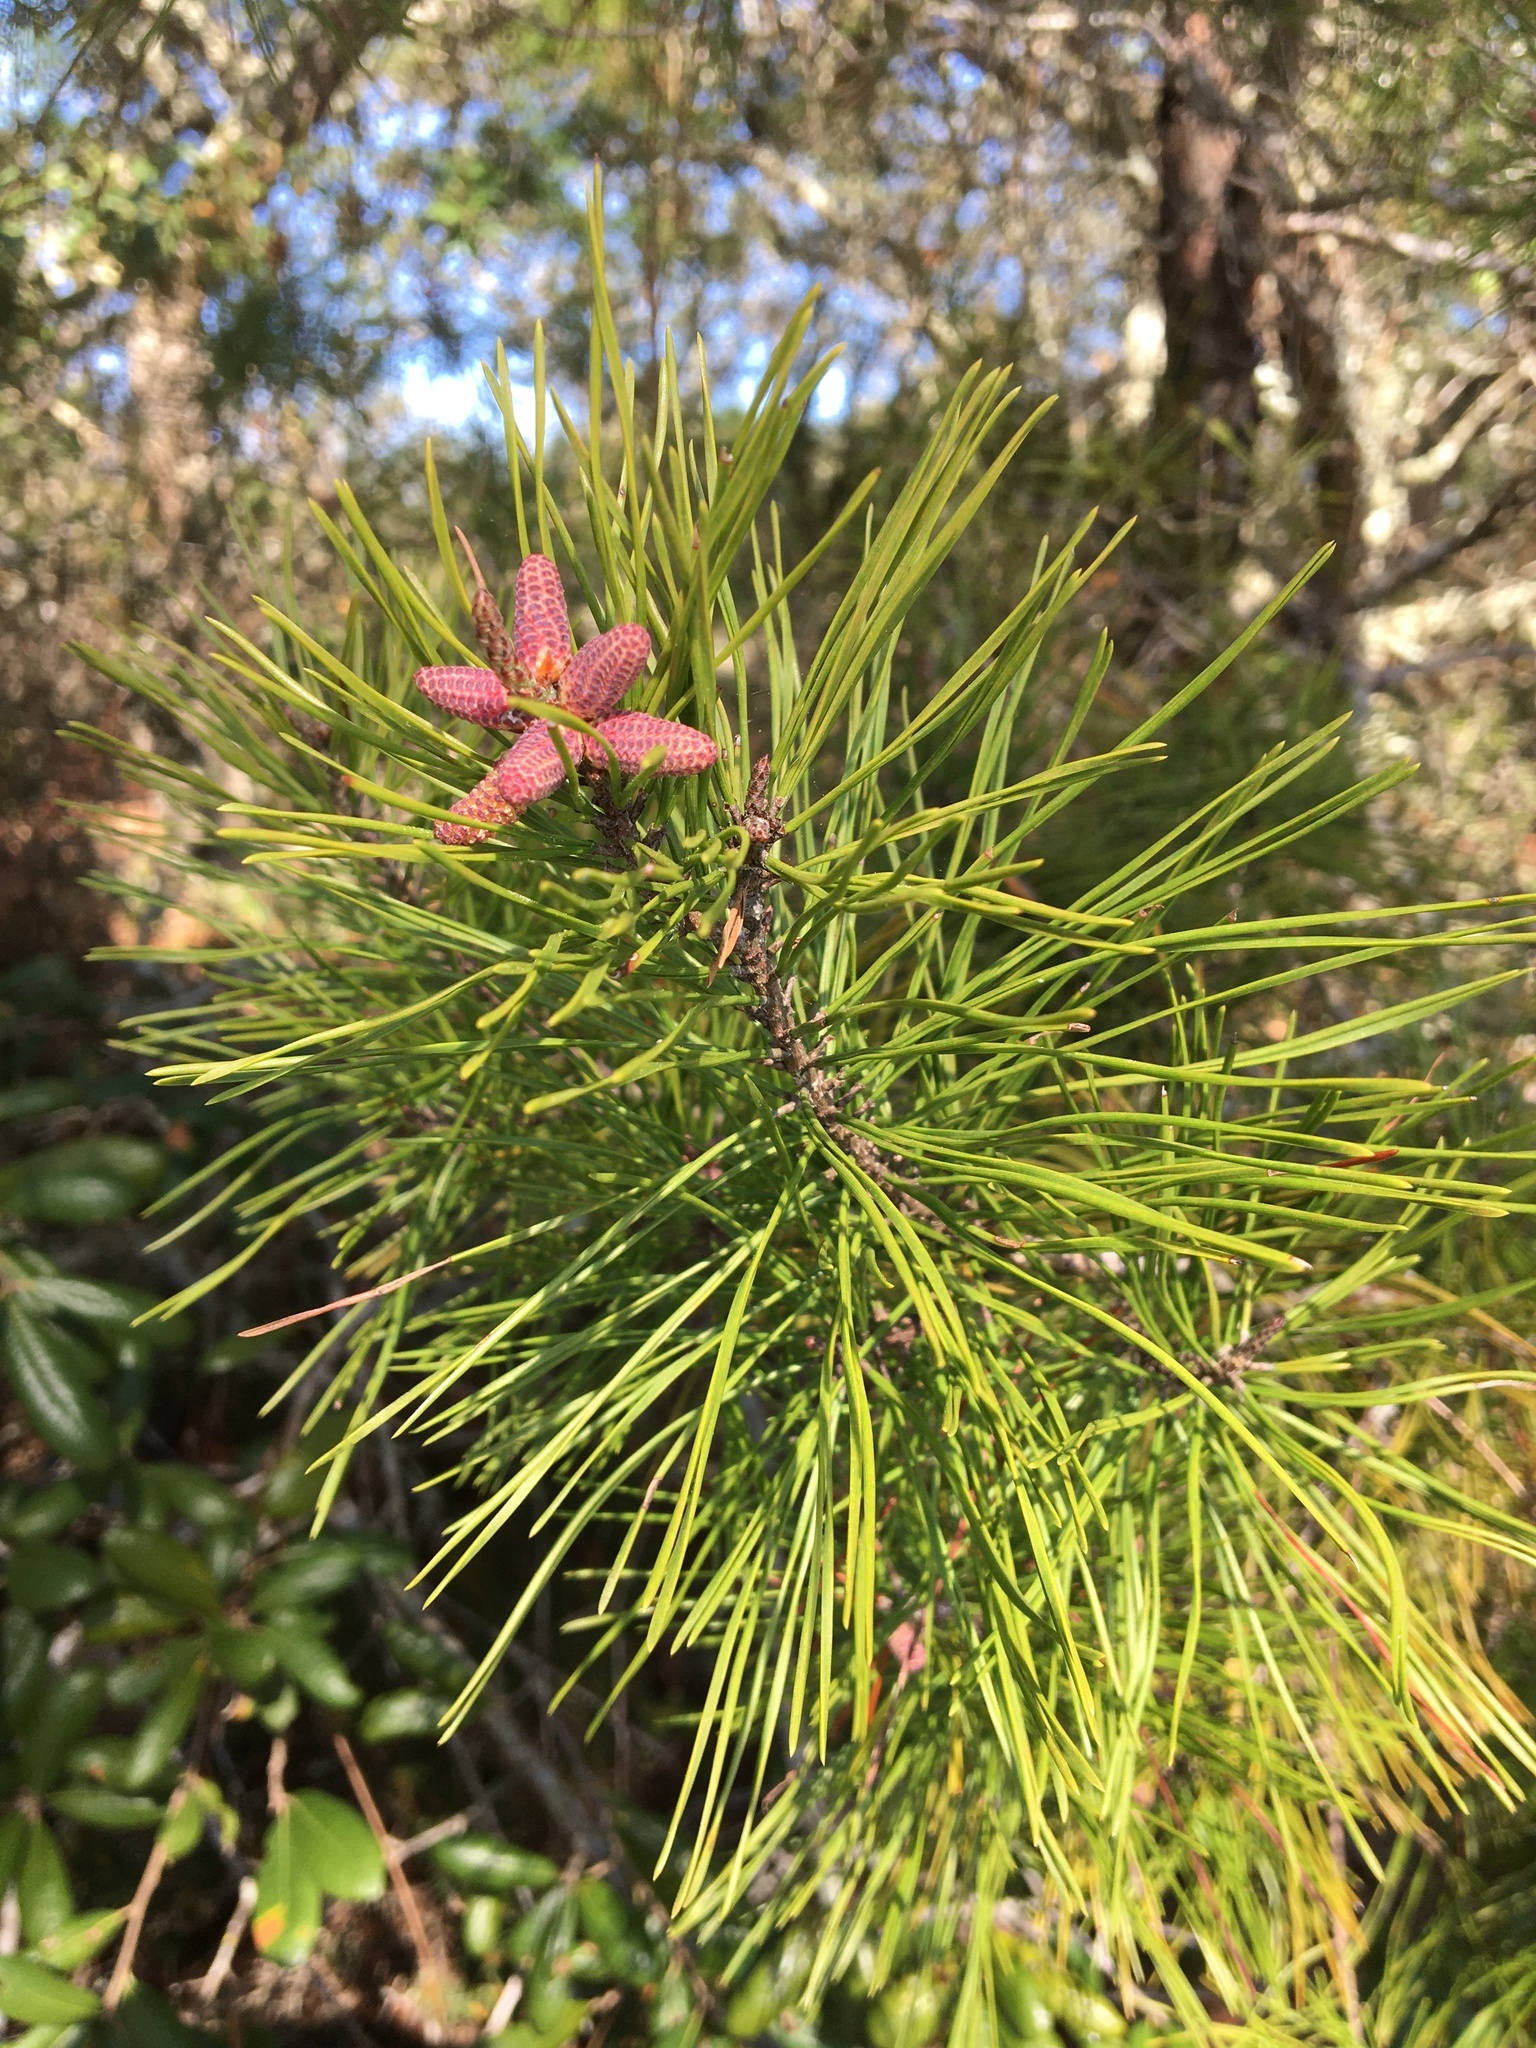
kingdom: Plantae
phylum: Tracheophyta
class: Pinopsida
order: Pinales
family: Pinaceae
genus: Pinus
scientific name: Pinus clausa
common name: Sand pine
